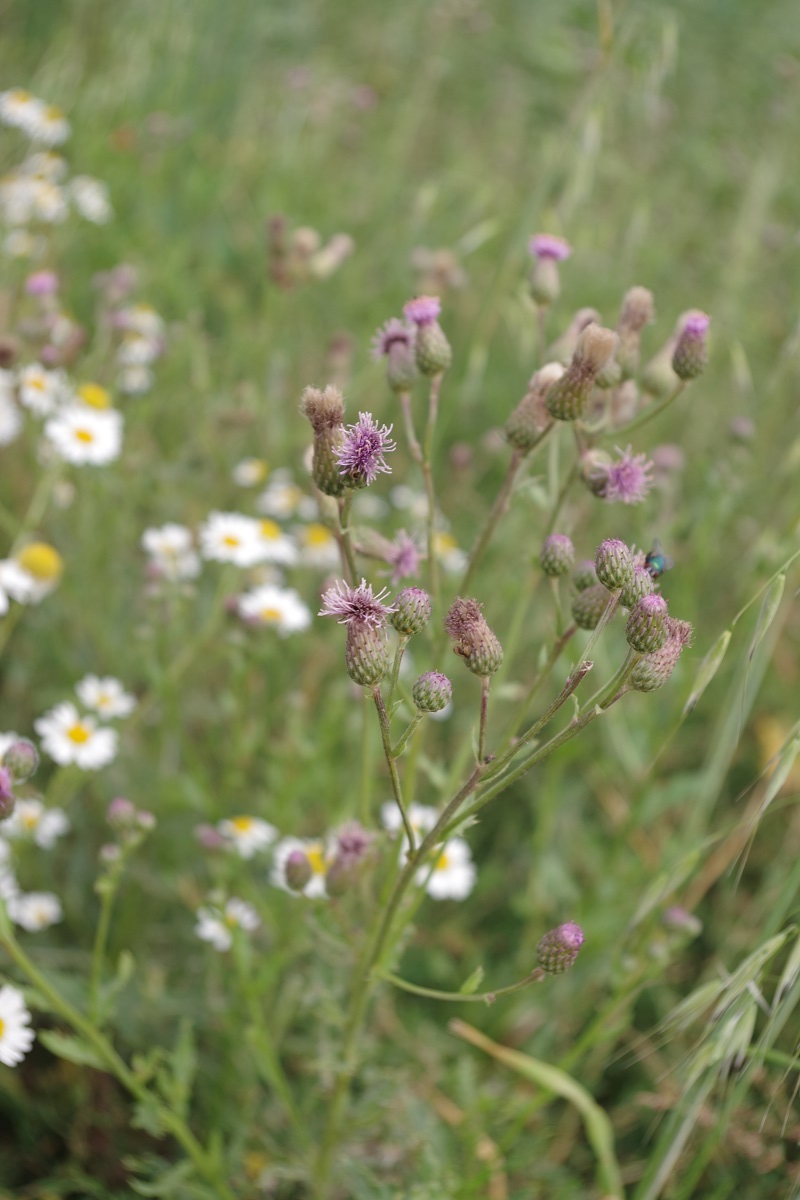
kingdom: Plantae
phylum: Tracheophyta
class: Magnoliopsida
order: Asterales
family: Asteraceae
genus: Cirsium
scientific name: Cirsium arvense
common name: Creeping thistle
